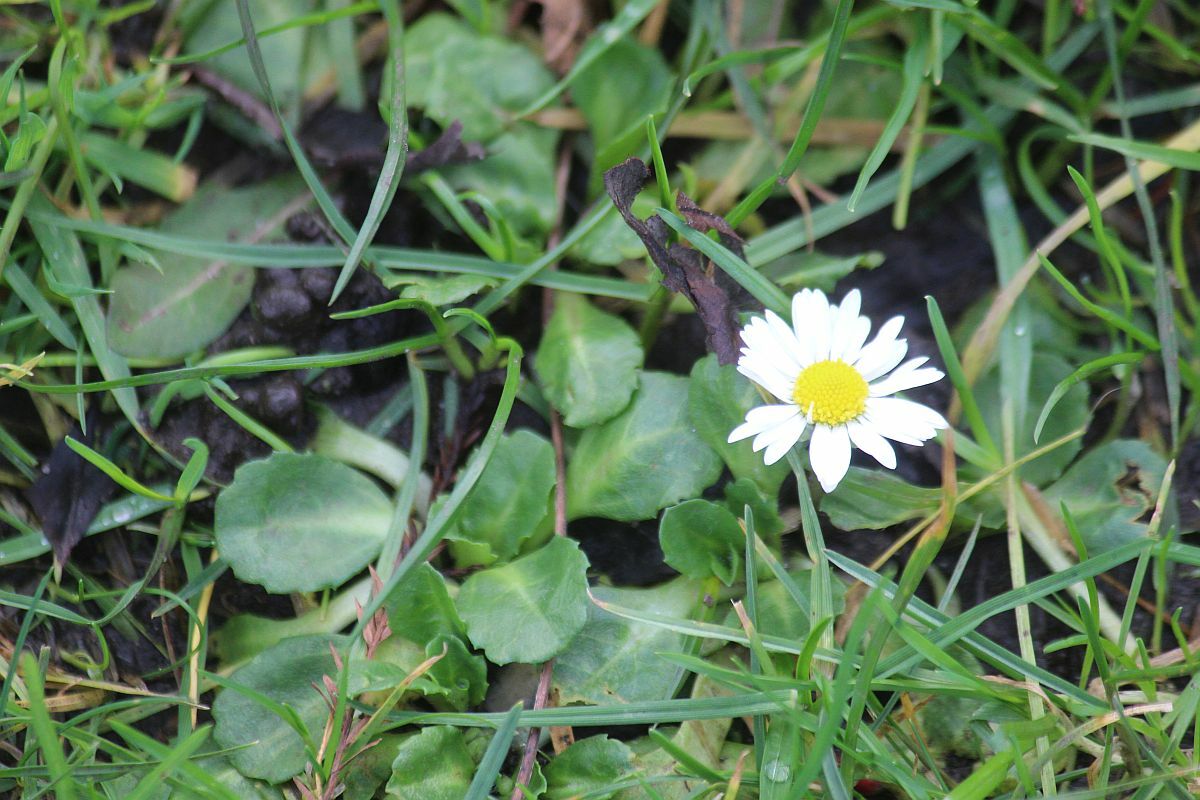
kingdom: Plantae
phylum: Tracheophyta
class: Magnoliopsida
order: Asterales
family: Asteraceae
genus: Bellis
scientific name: Bellis perennis
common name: Lawndaisy
